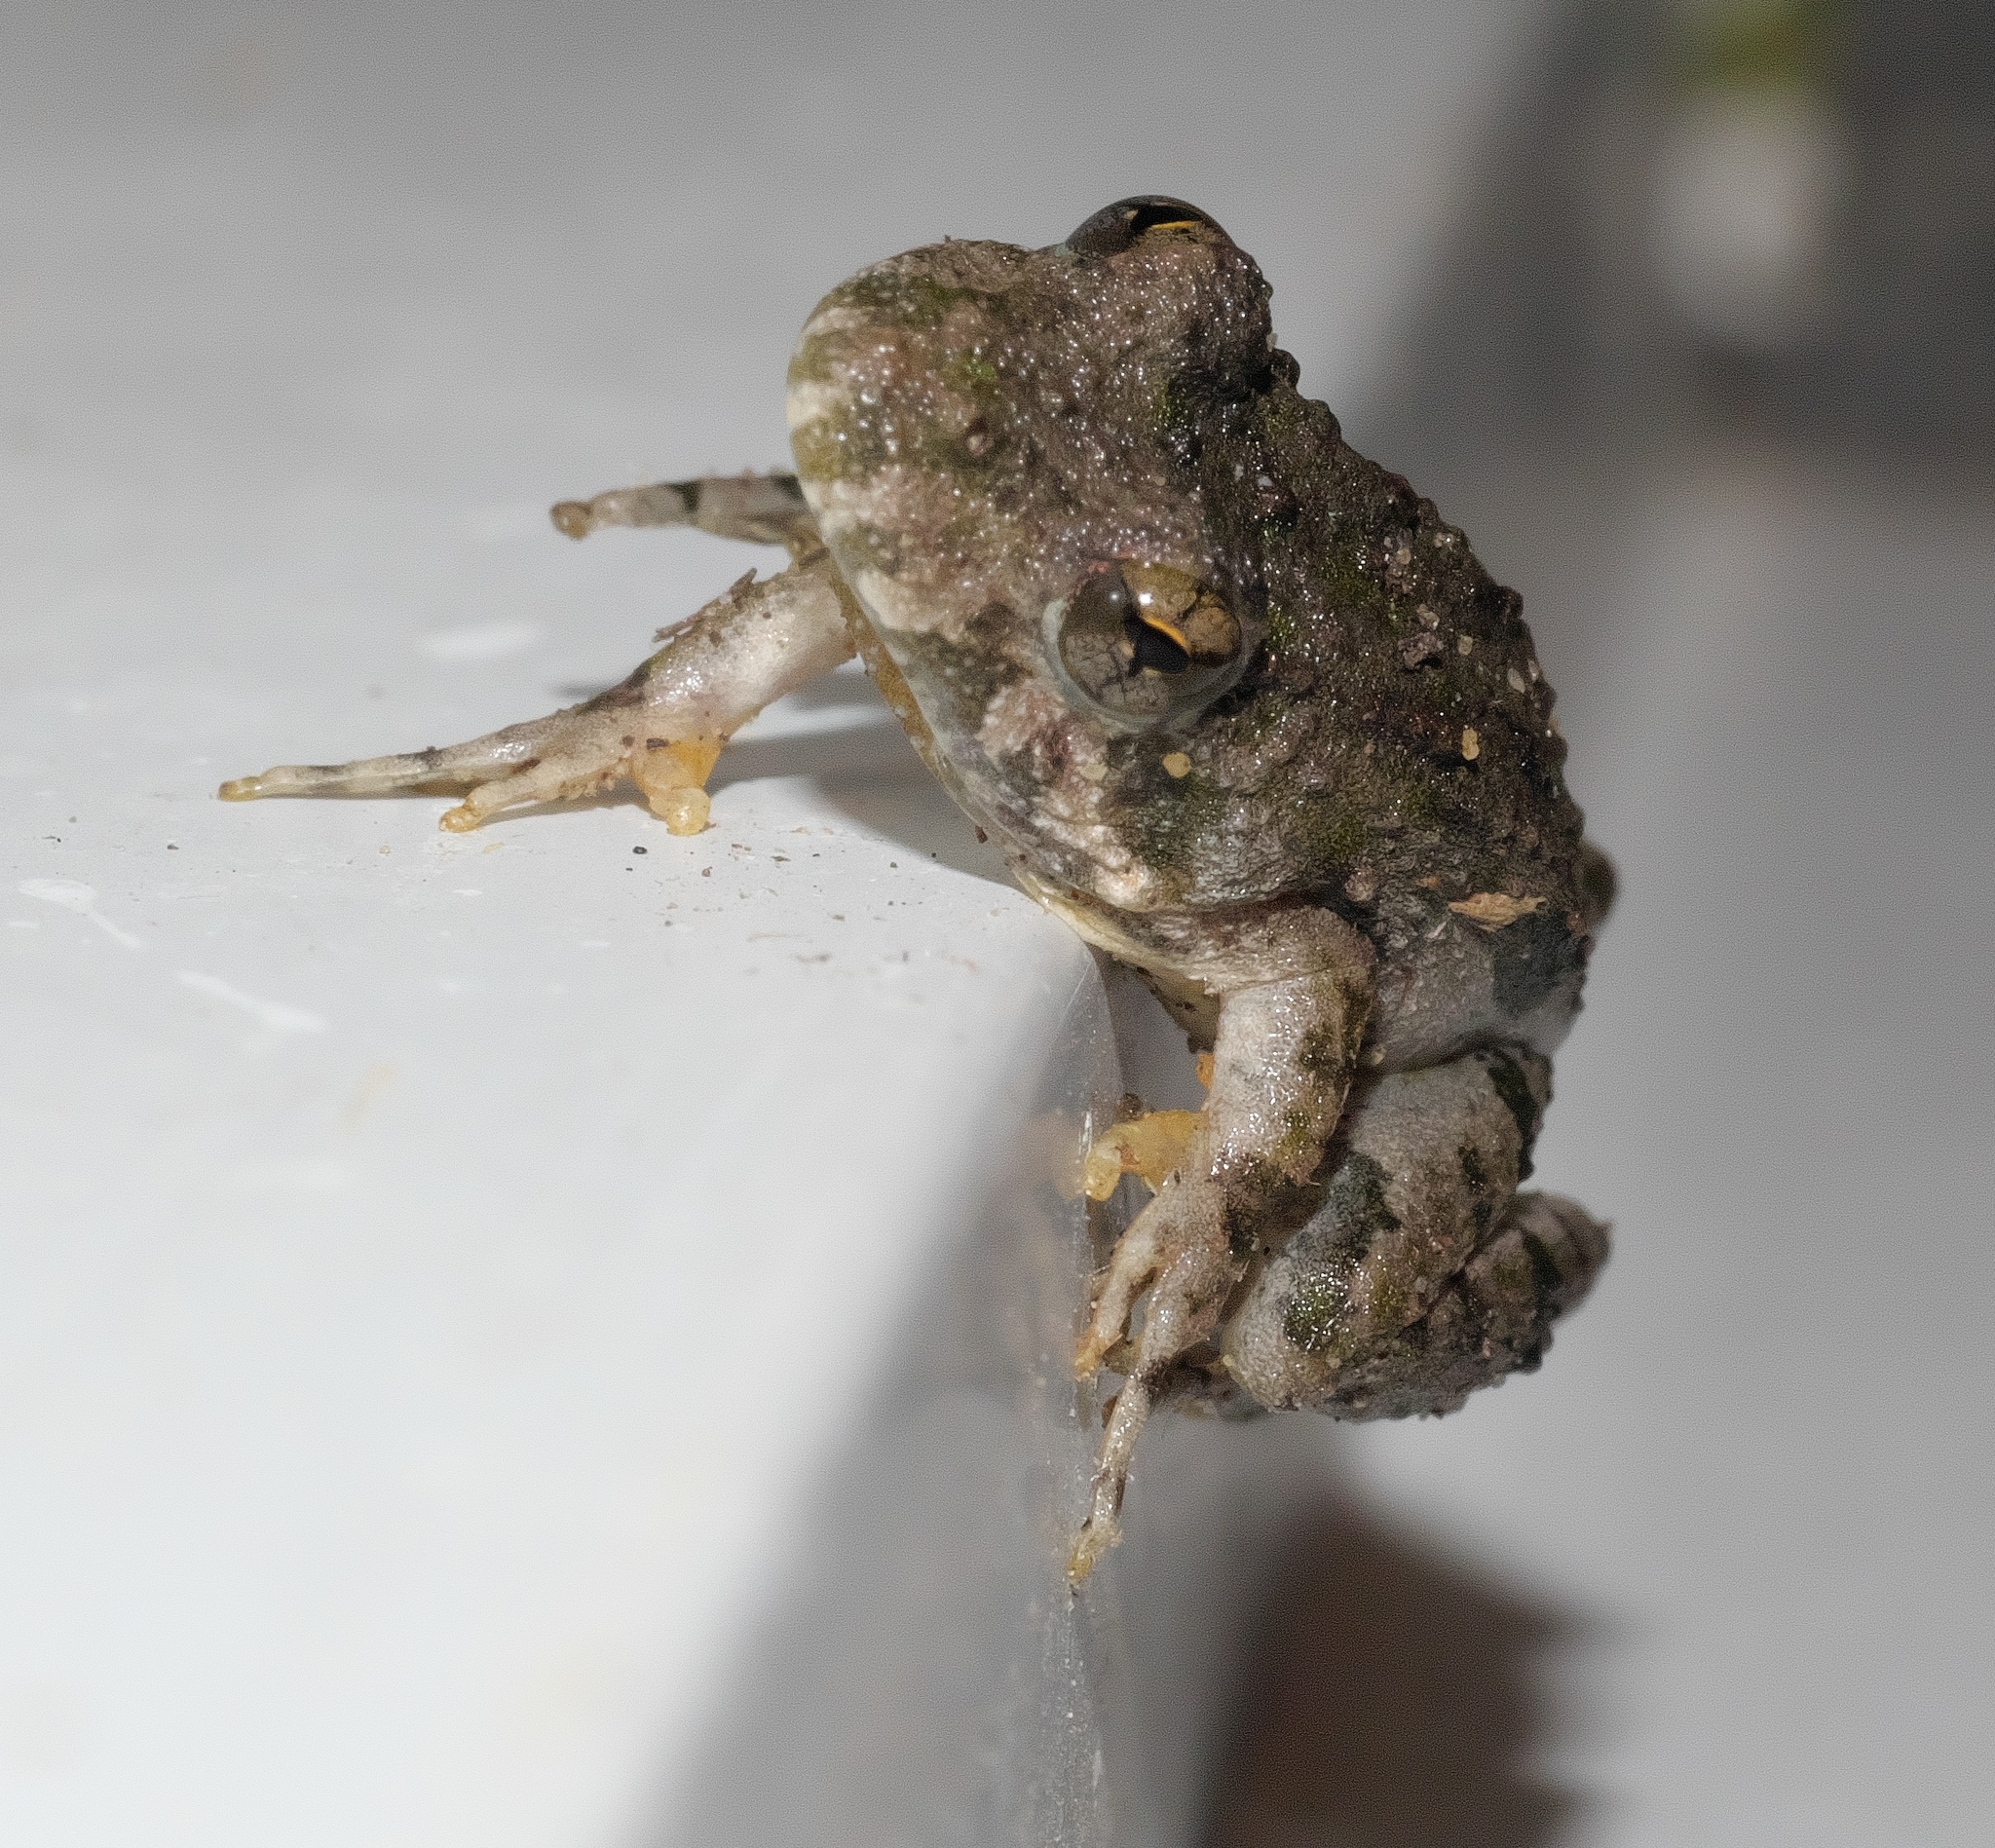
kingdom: Animalia
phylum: Chordata
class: Amphibia
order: Anura
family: Hylidae
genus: Acris
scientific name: Acris blanchardi
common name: Blanchard's cricket frog
